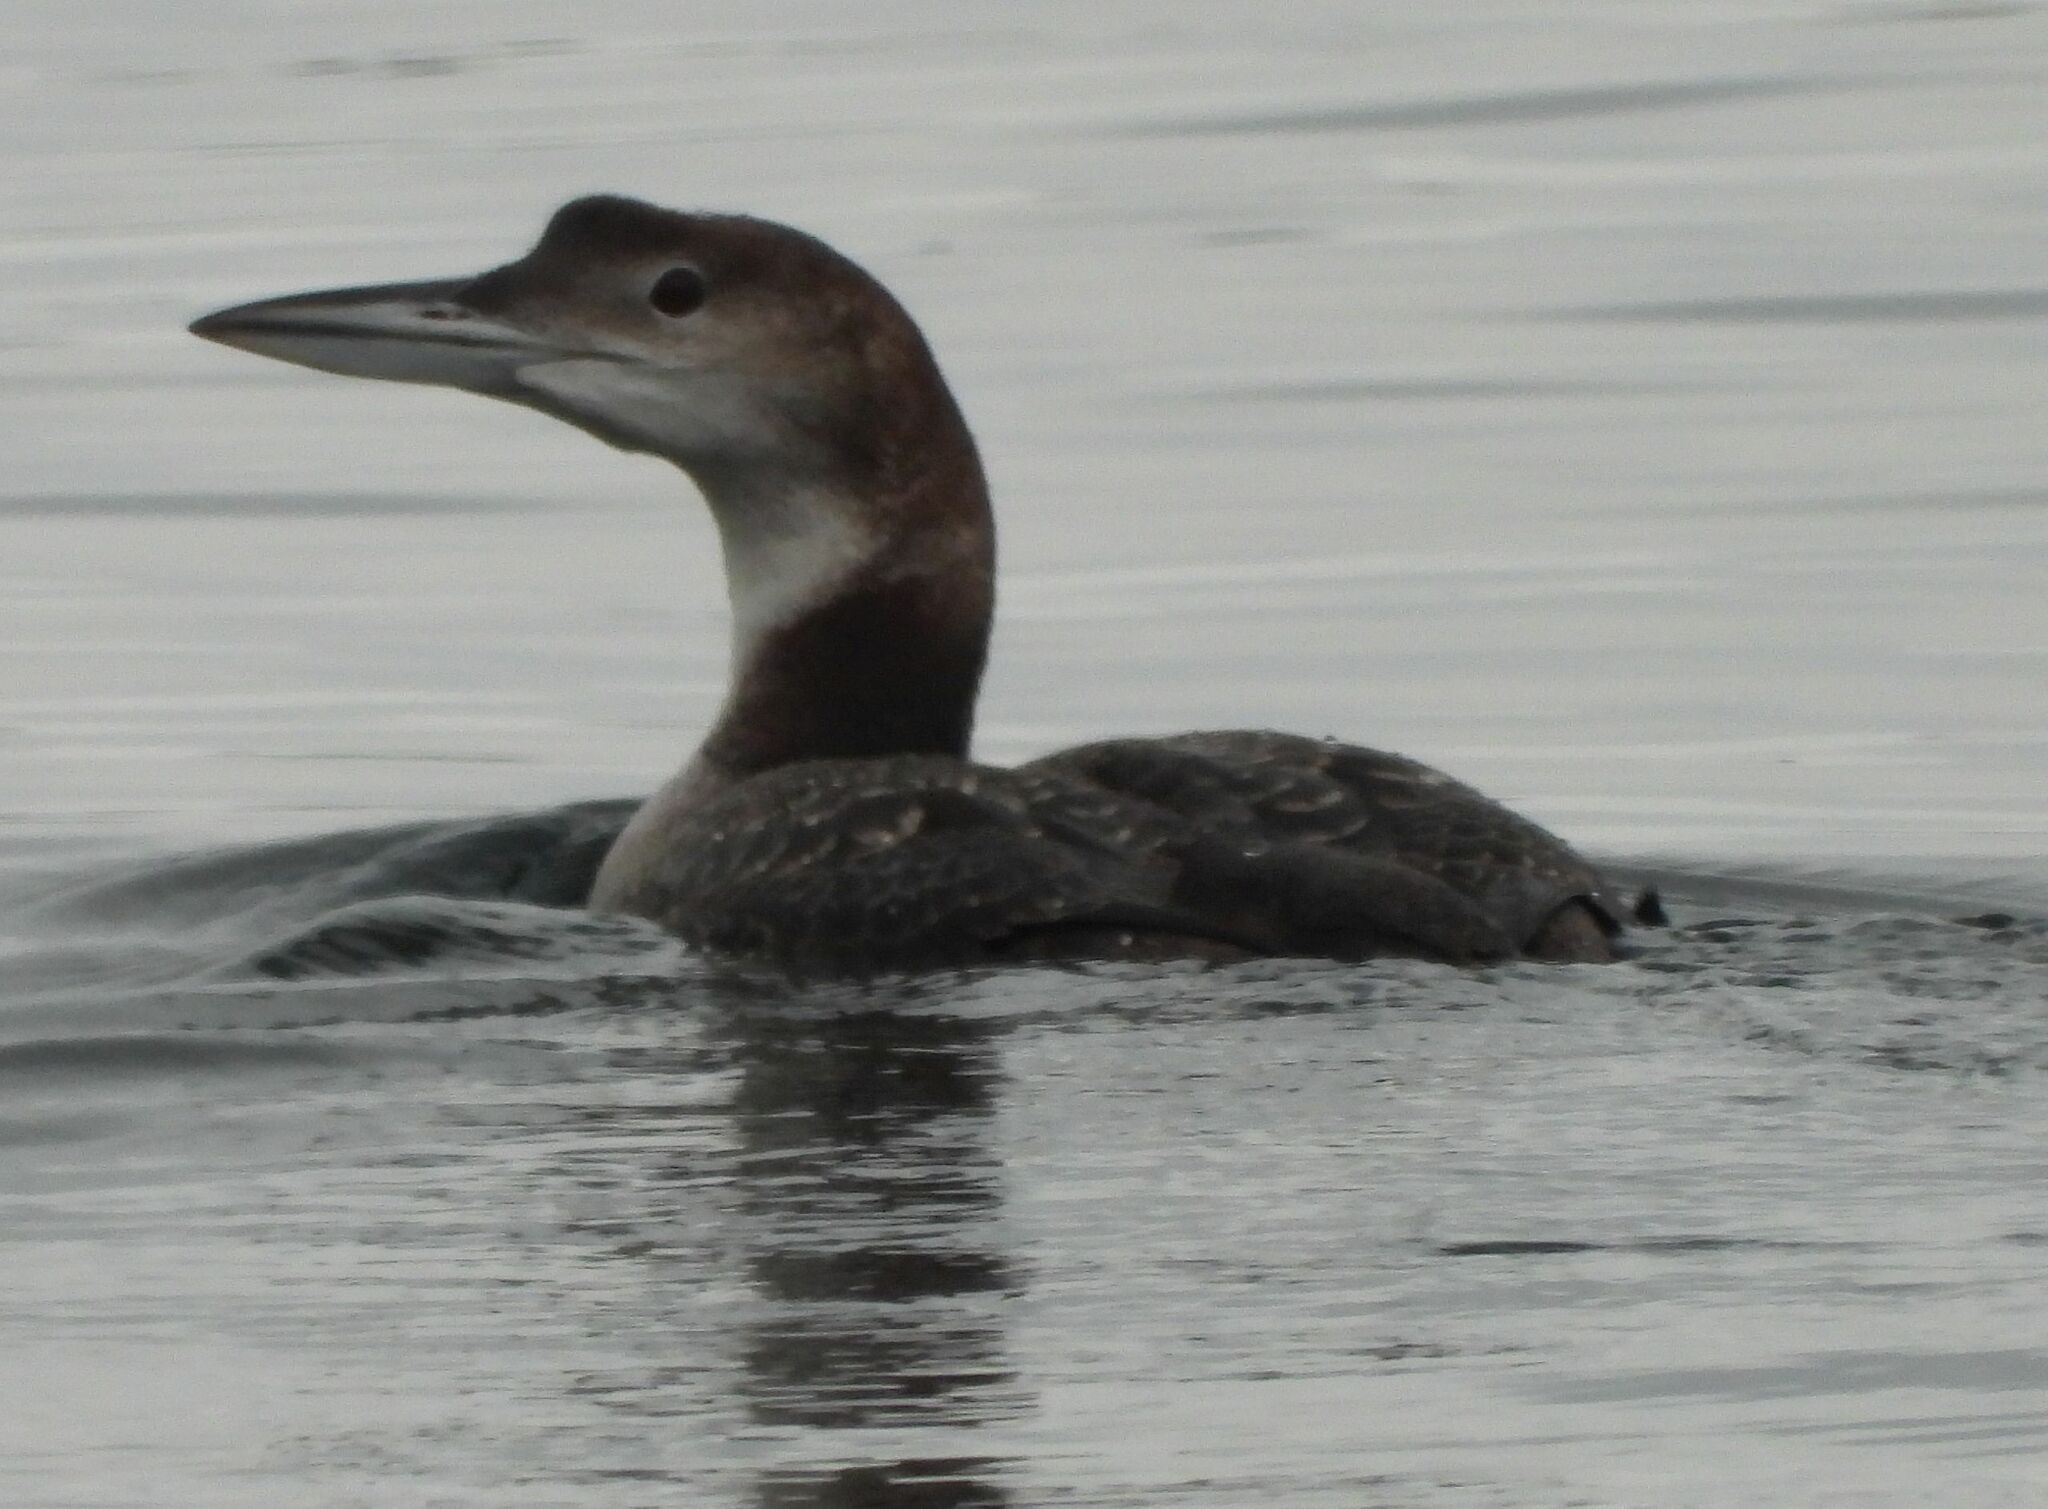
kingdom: Animalia
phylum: Chordata
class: Aves
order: Gaviiformes
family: Gaviidae
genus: Gavia
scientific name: Gavia immer
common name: Common loon
